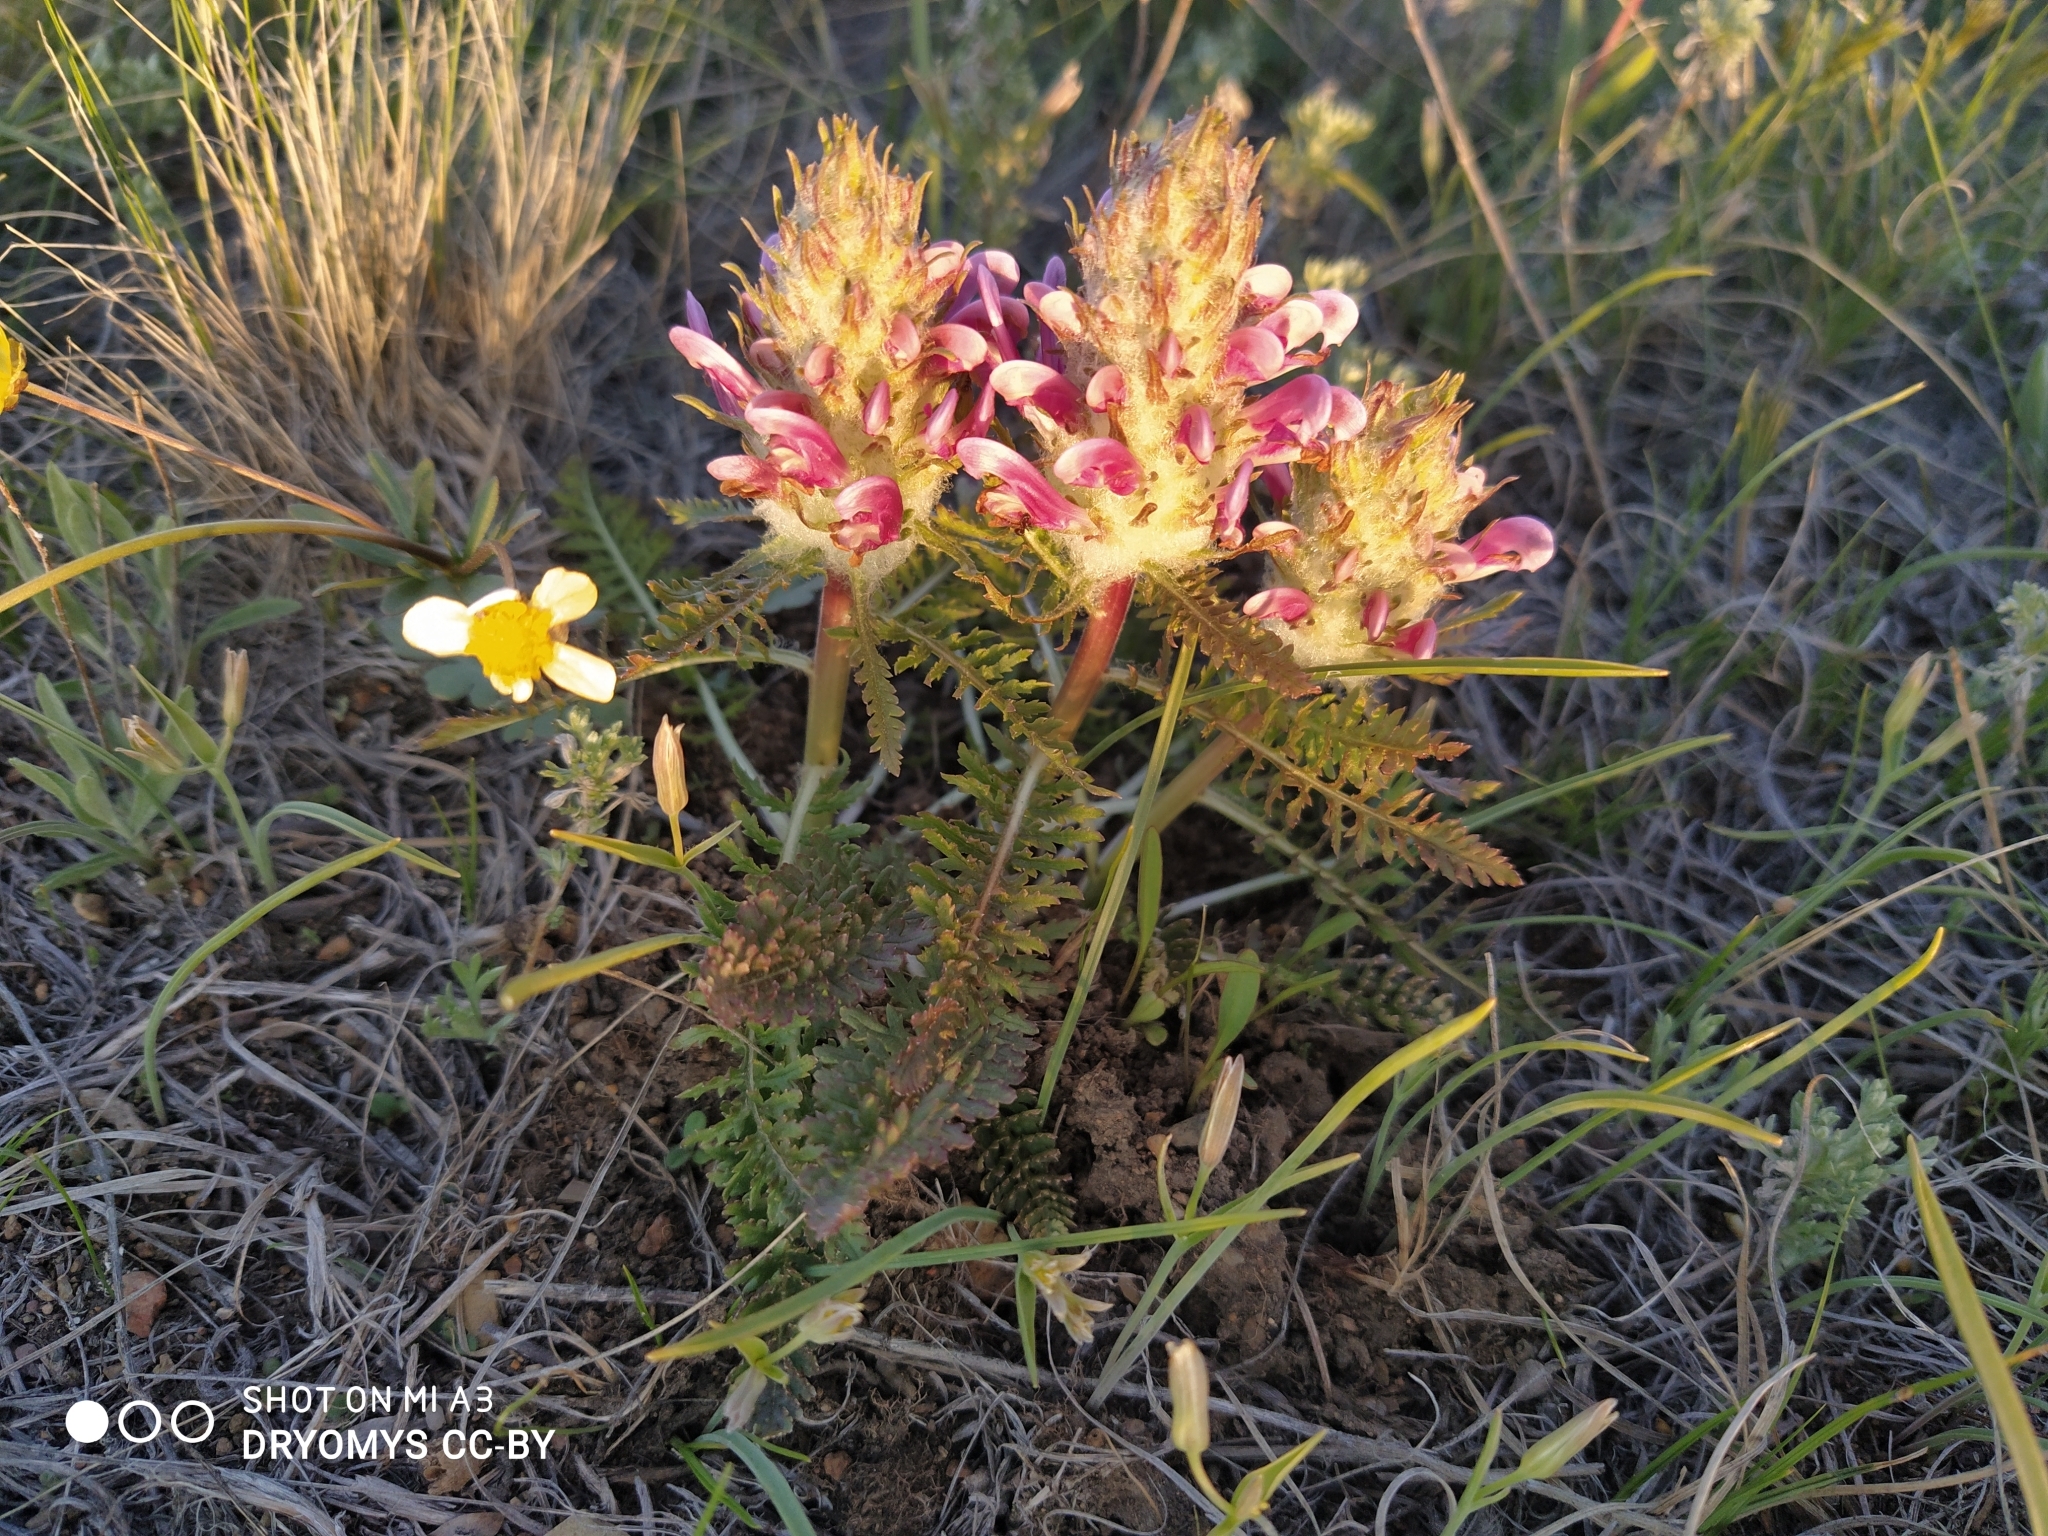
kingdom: Plantae
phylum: Tracheophyta
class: Magnoliopsida
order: Lamiales
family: Orobanchaceae
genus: Pedicularis
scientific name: Pedicularis dasystachys
